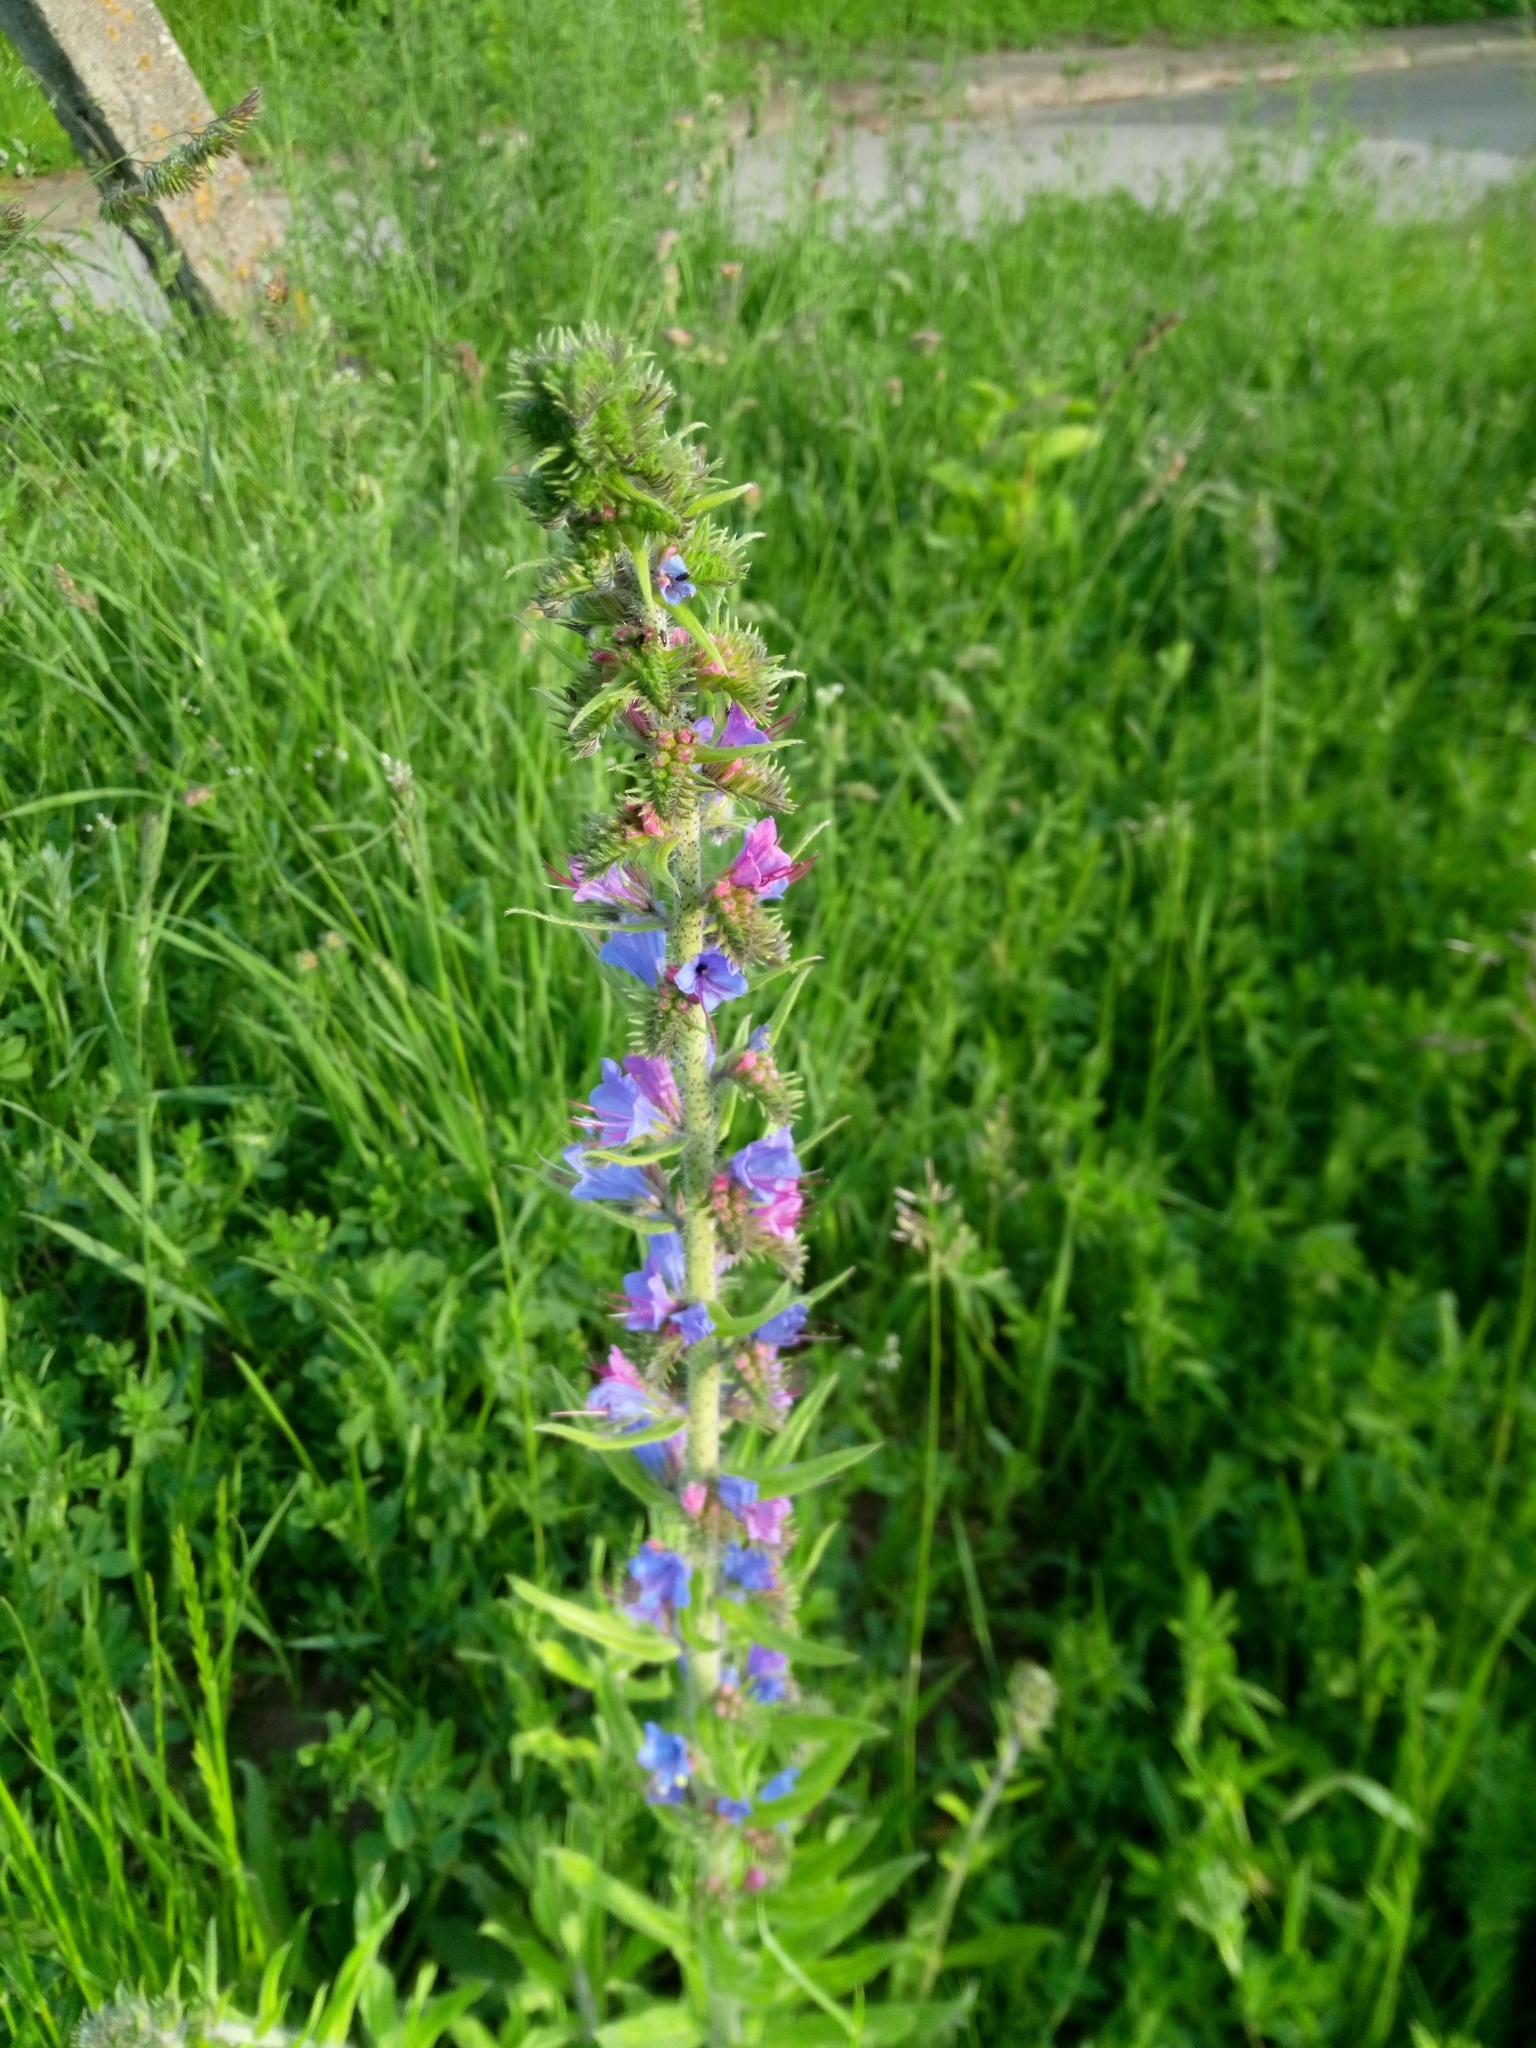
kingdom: Plantae
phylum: Tracheophyta
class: Magnoliopsida
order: Boraginales
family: Boraginaceae
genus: Echium
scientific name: Echium vulgare
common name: Common viper's bugloss
